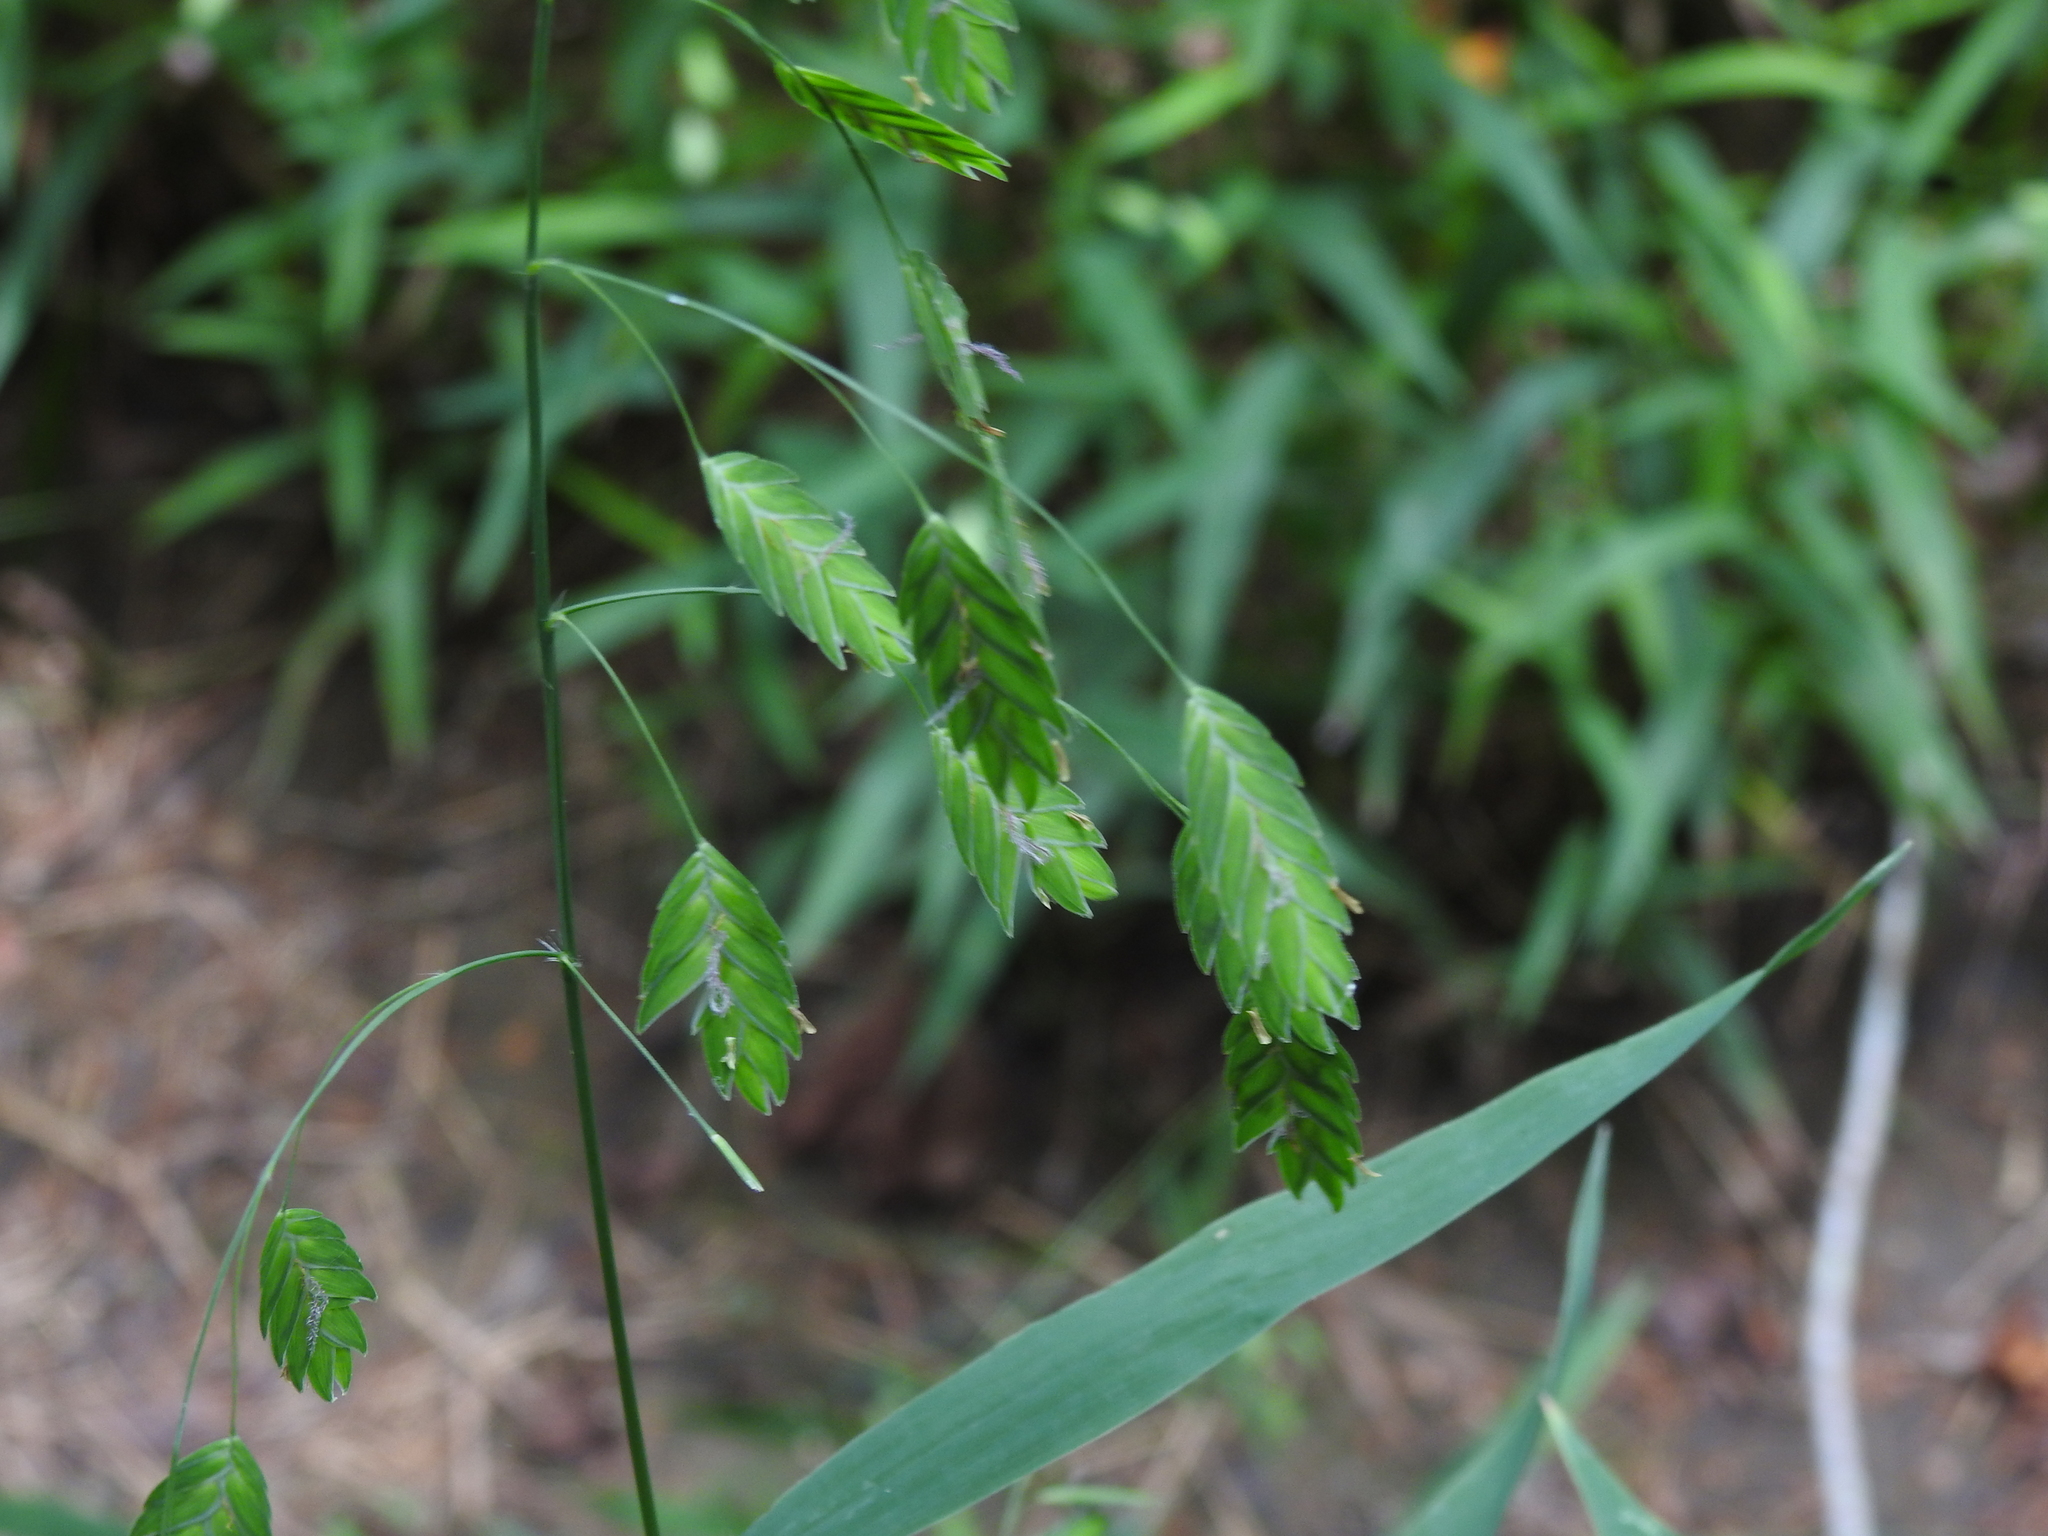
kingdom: Plantae
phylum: Tracheophyta
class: Liliopsida
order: Poales
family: Poaceae
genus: Chasmanthium
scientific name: Chasmanthium latifolium
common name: Broad-leaved chasmanthium
